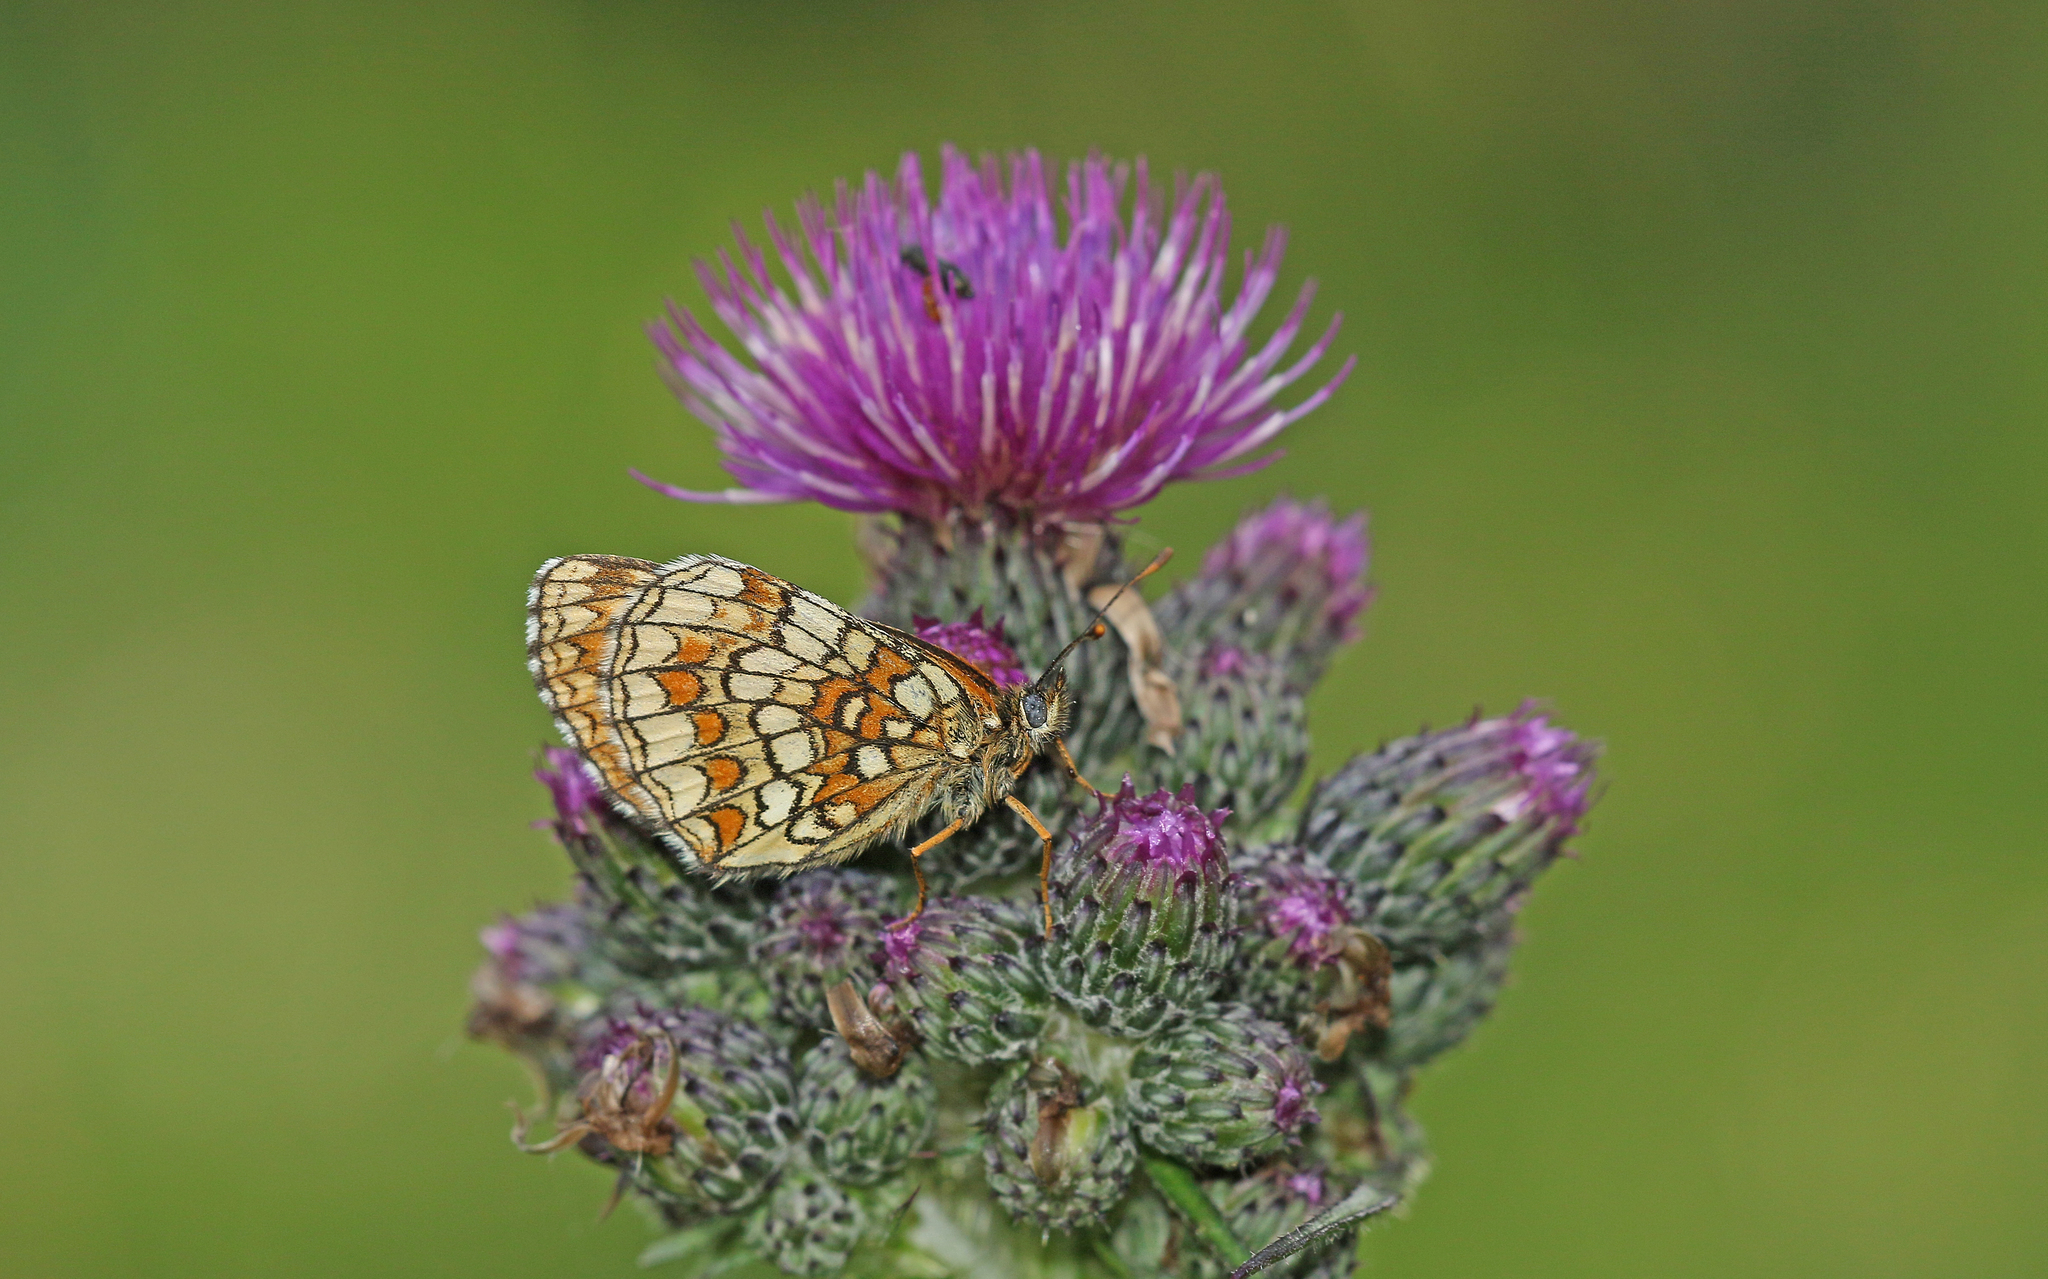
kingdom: Animalia
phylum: Arthropoda
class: Insecta
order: Lepidoptera
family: Nymphalidae
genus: Melitaea
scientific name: Melitaea athalia
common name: Heath fritillary
